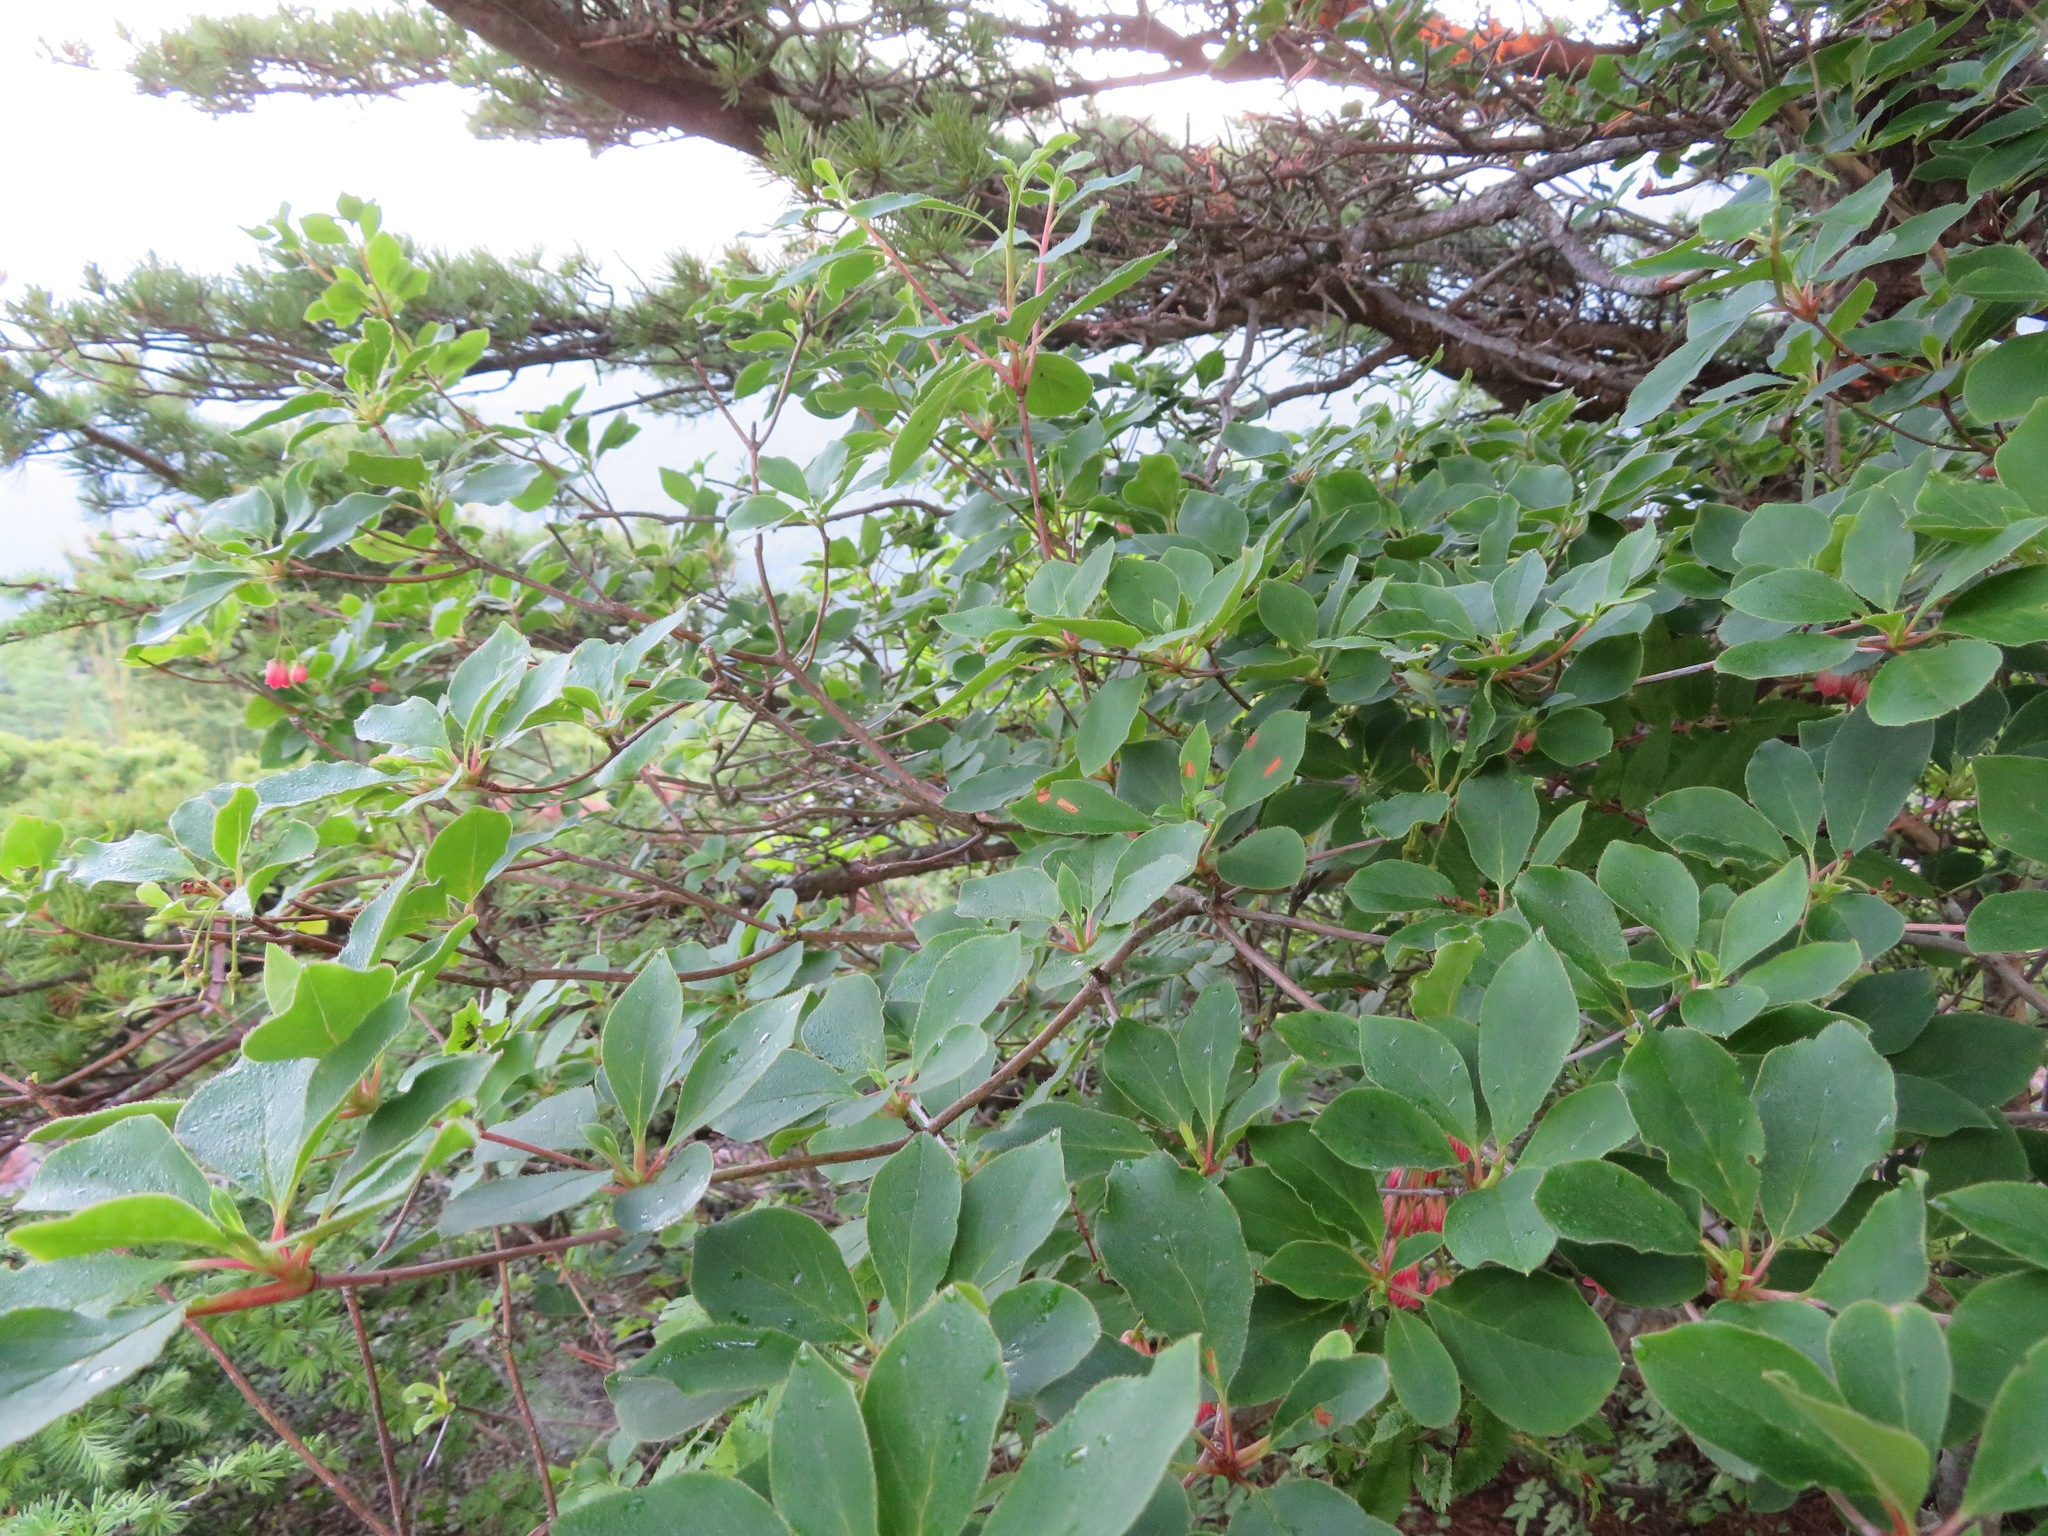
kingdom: Plantae
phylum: Tracheophyta
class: Magnoliopsida
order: Ericales
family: Ericaceae
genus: Enkianthus
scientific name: Enkianthus campanulatus
